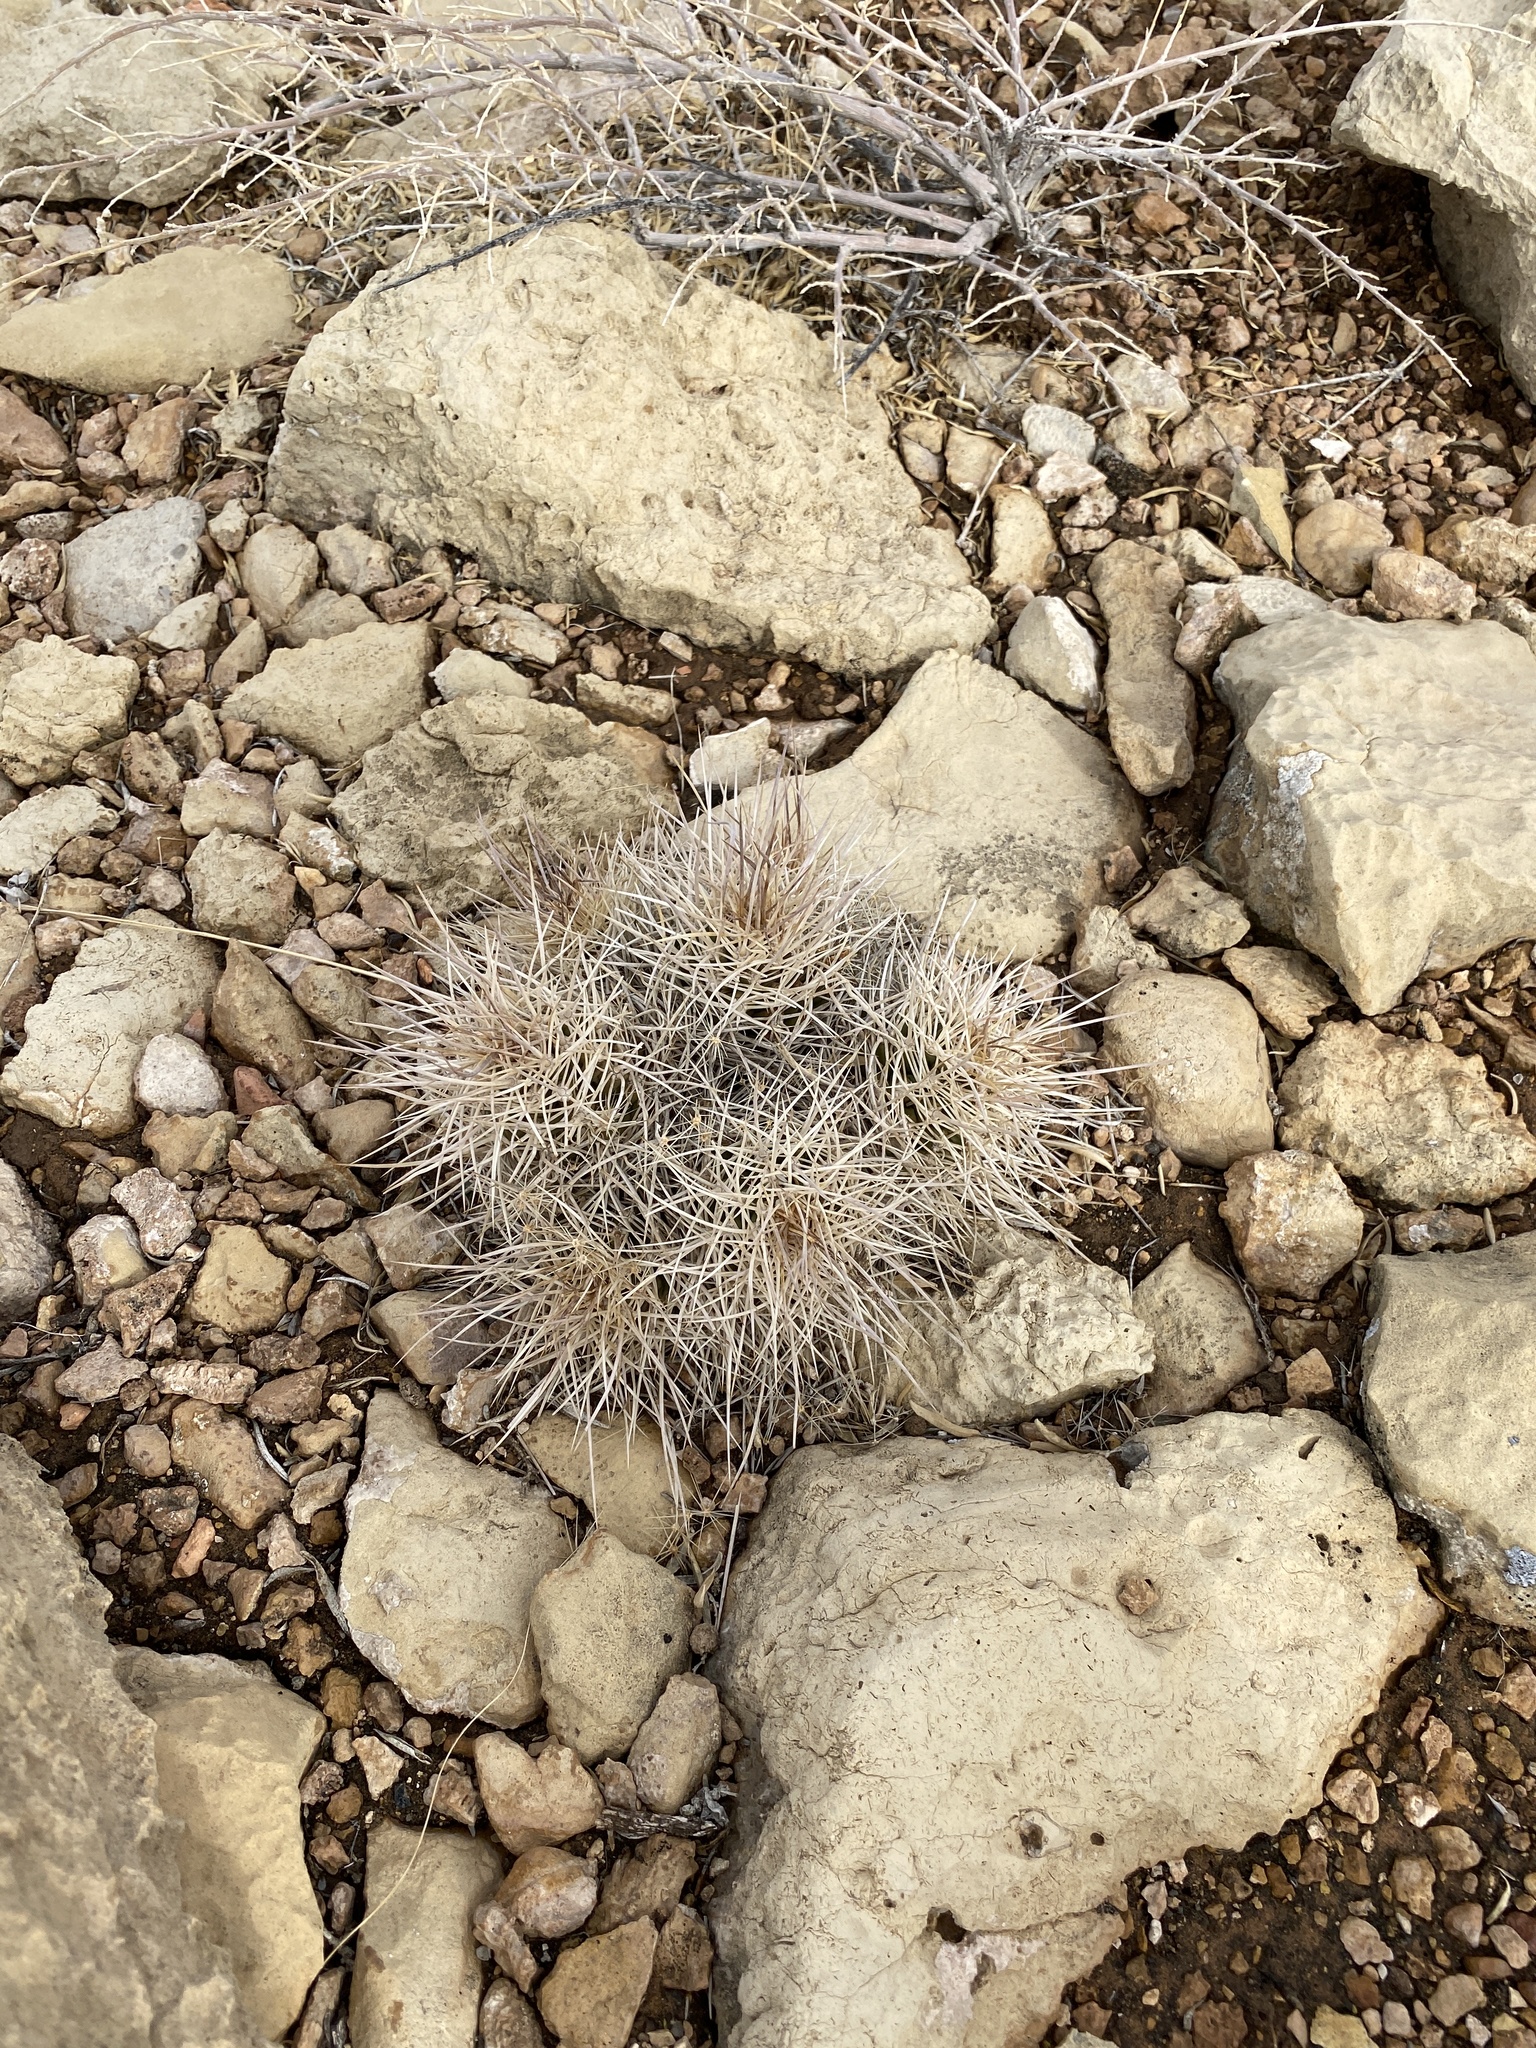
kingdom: Plantae
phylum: Tracheophyta
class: Magnoliopsida
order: Caryophyllales
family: Cactaceae
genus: Echinocereus
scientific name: Echinocereus triglochidiatus
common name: Claretcup hedgehog
